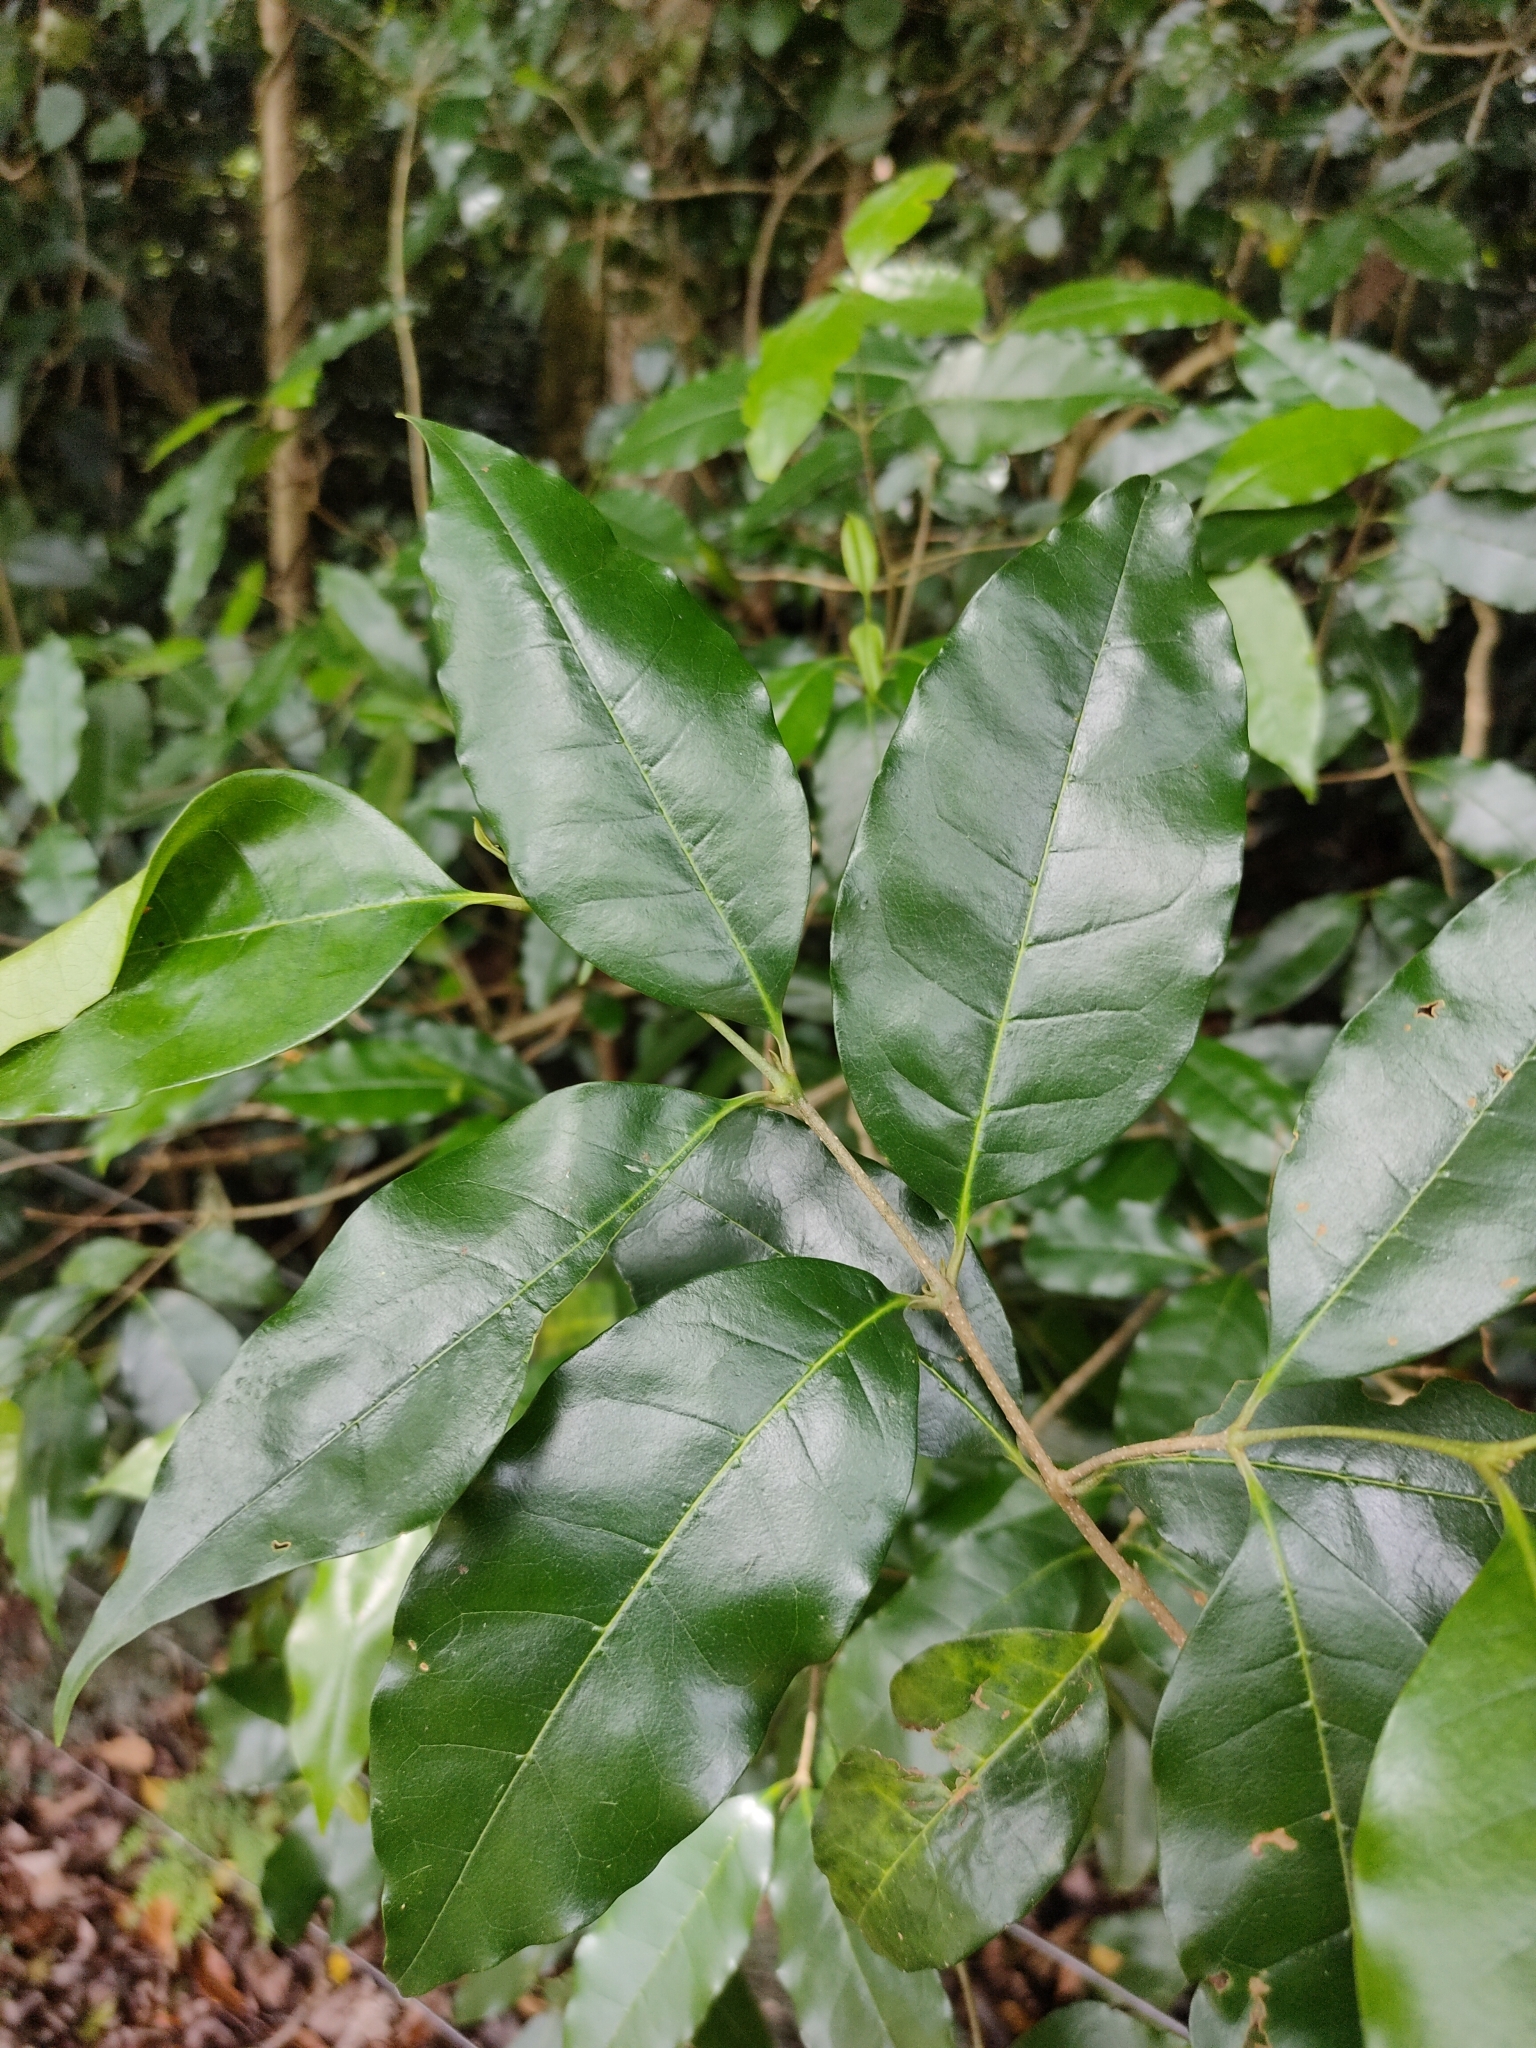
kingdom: Plantae
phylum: Tracheophyta
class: Magnoliopsida
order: Lamiales
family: Oleaceae
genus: Olea
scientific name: Olea paniculata
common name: Australian olive
